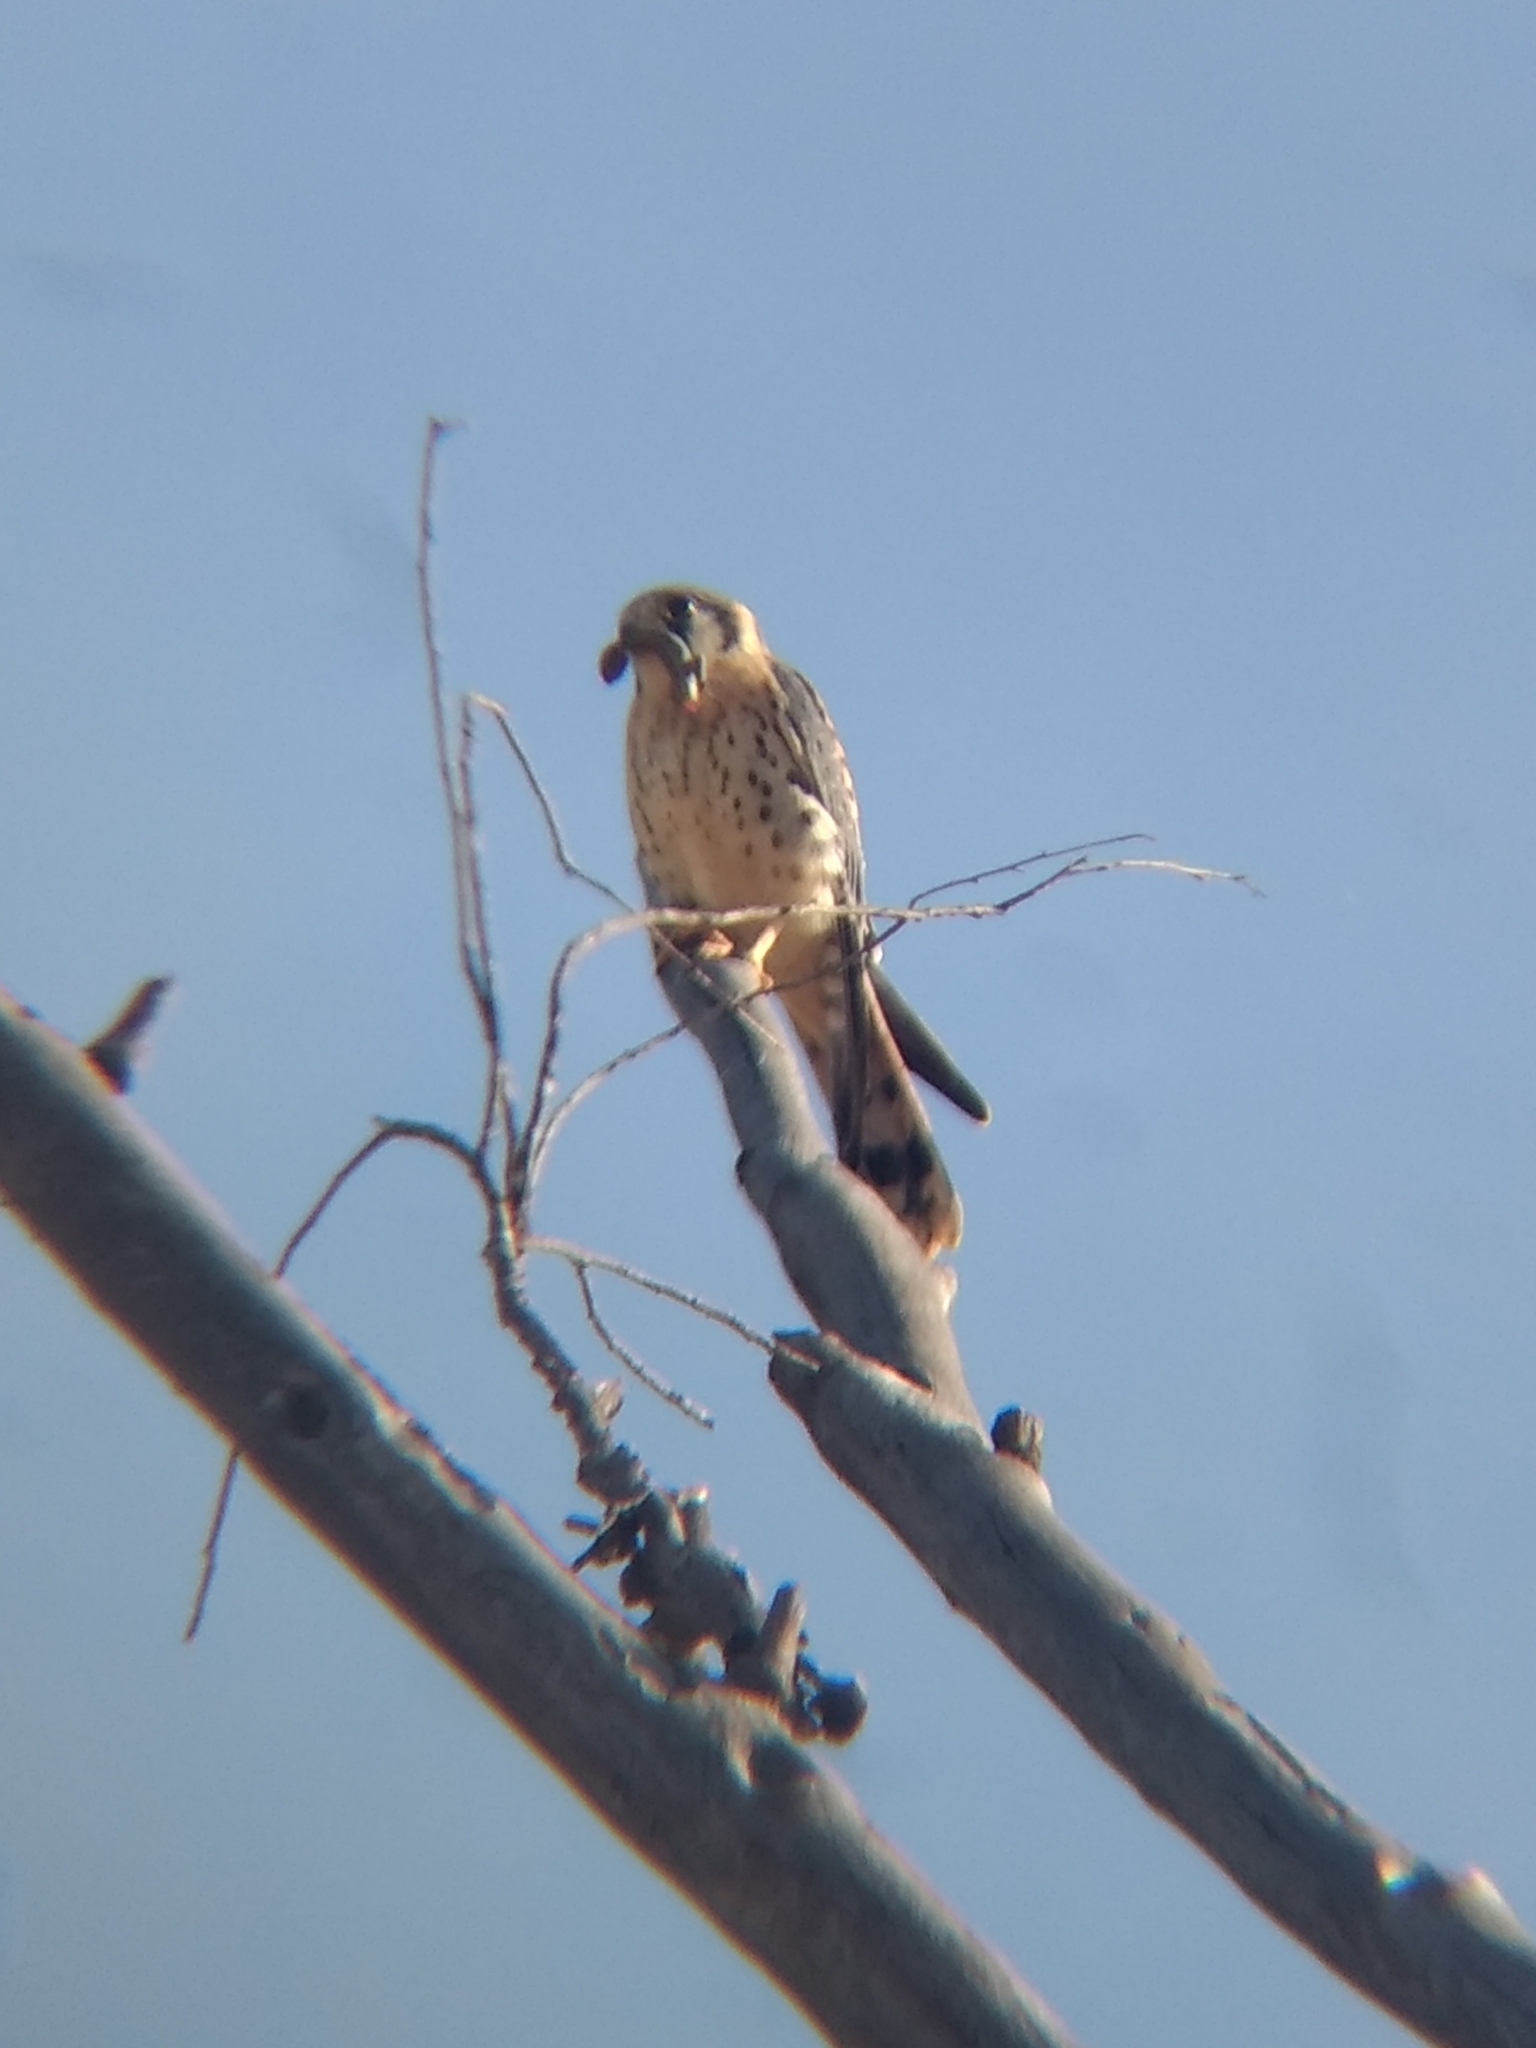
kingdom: Animalia
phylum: Chordata
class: Aves
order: Falconiformes
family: Falconidae
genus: Falco
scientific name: Falco sparverius
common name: American kestrel
